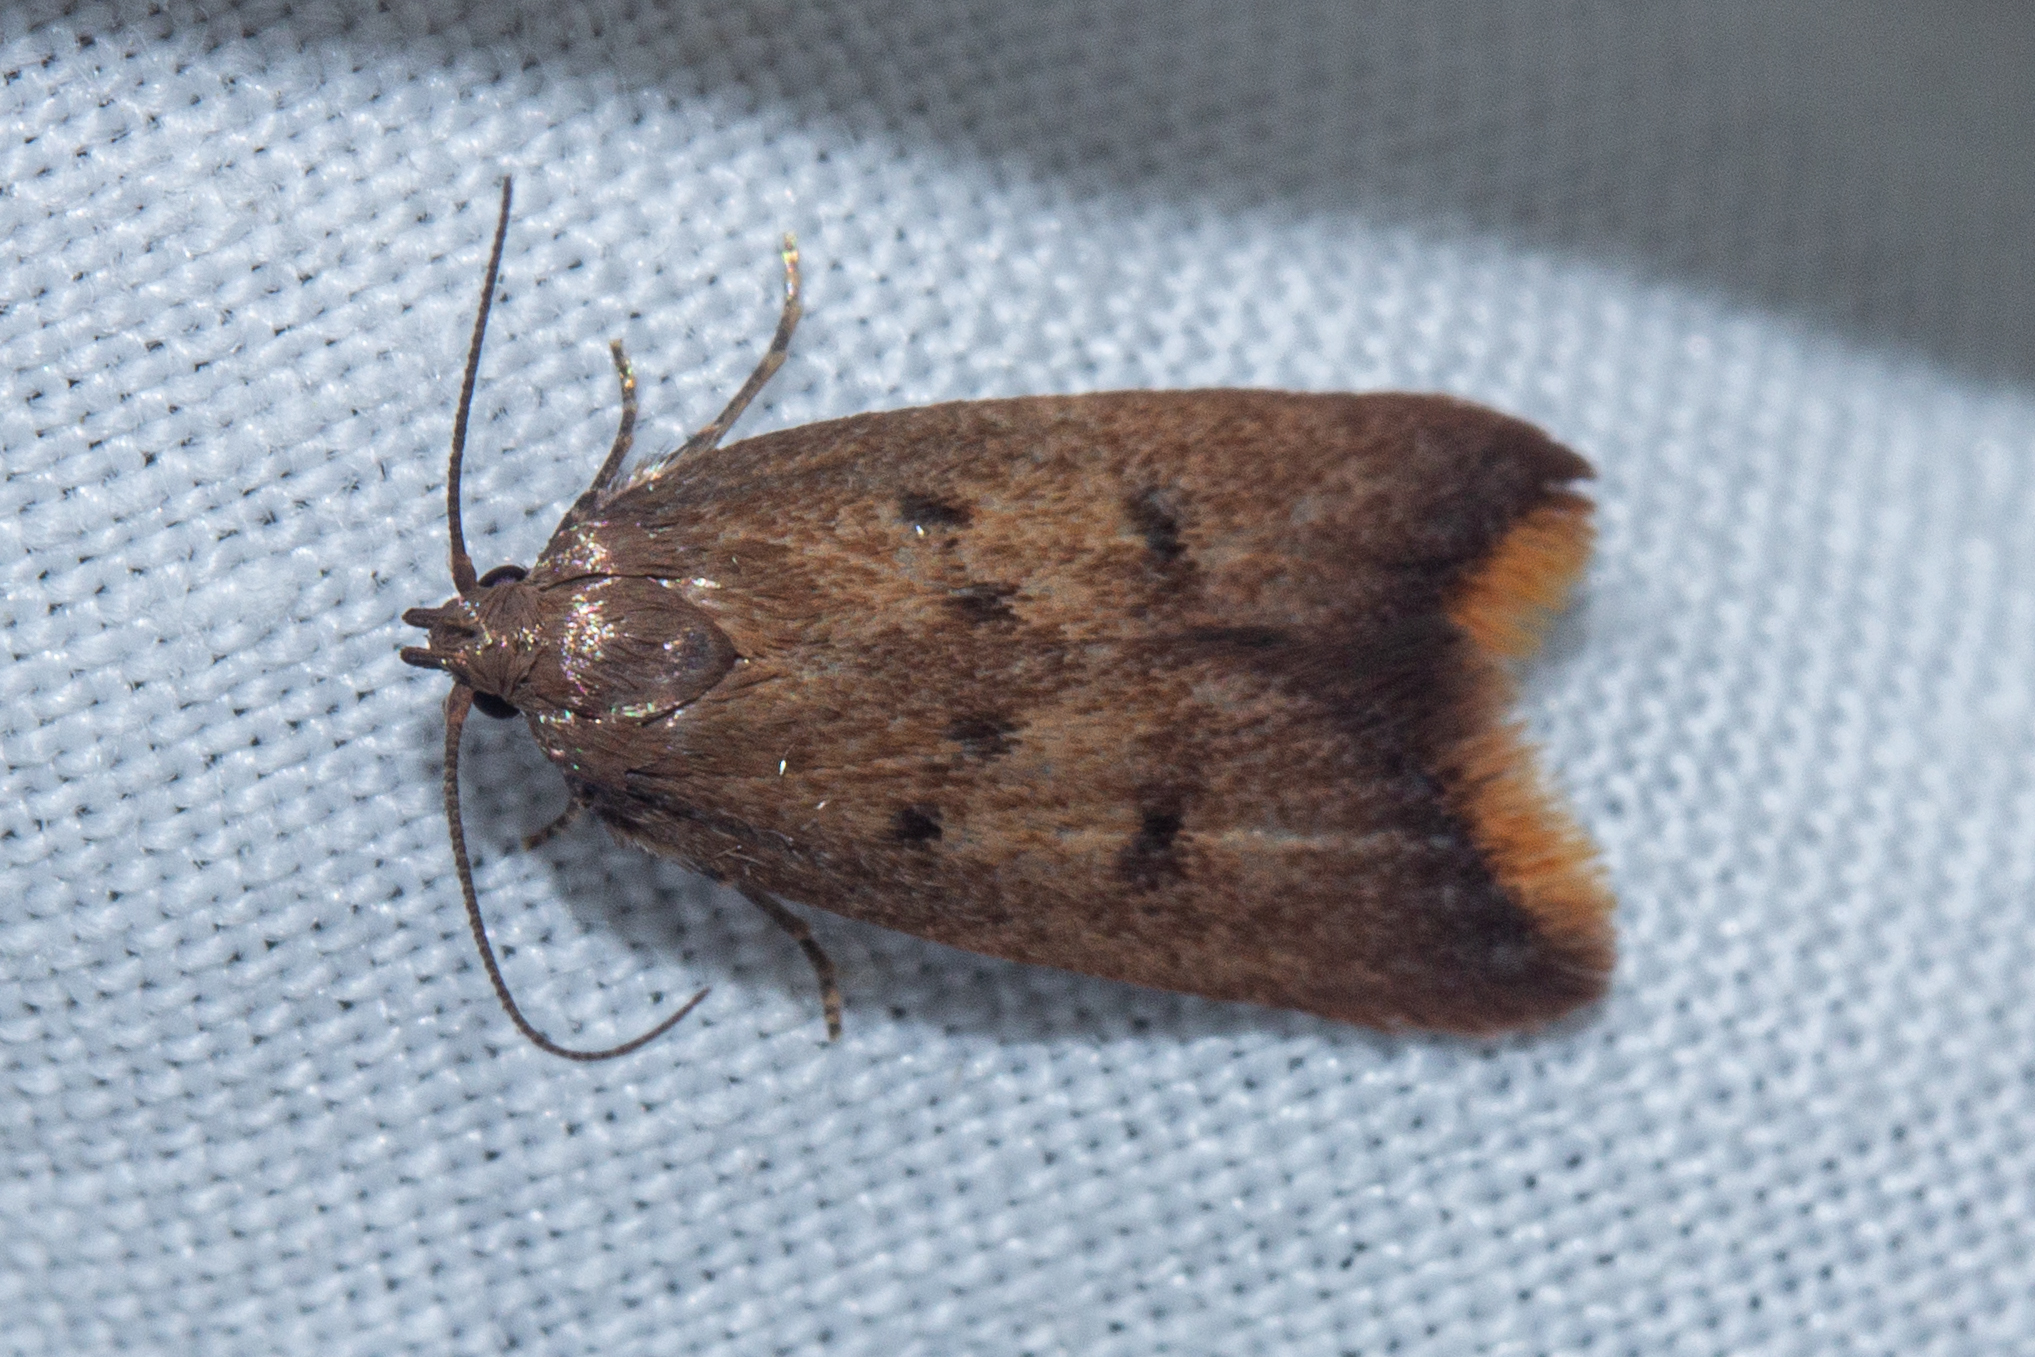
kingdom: Animalia
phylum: Arthropoda
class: Insecta
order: Lepidoptera
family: Oecophoridae
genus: Tachystola
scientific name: Tachystola acroxantha
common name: Ruddy streak
